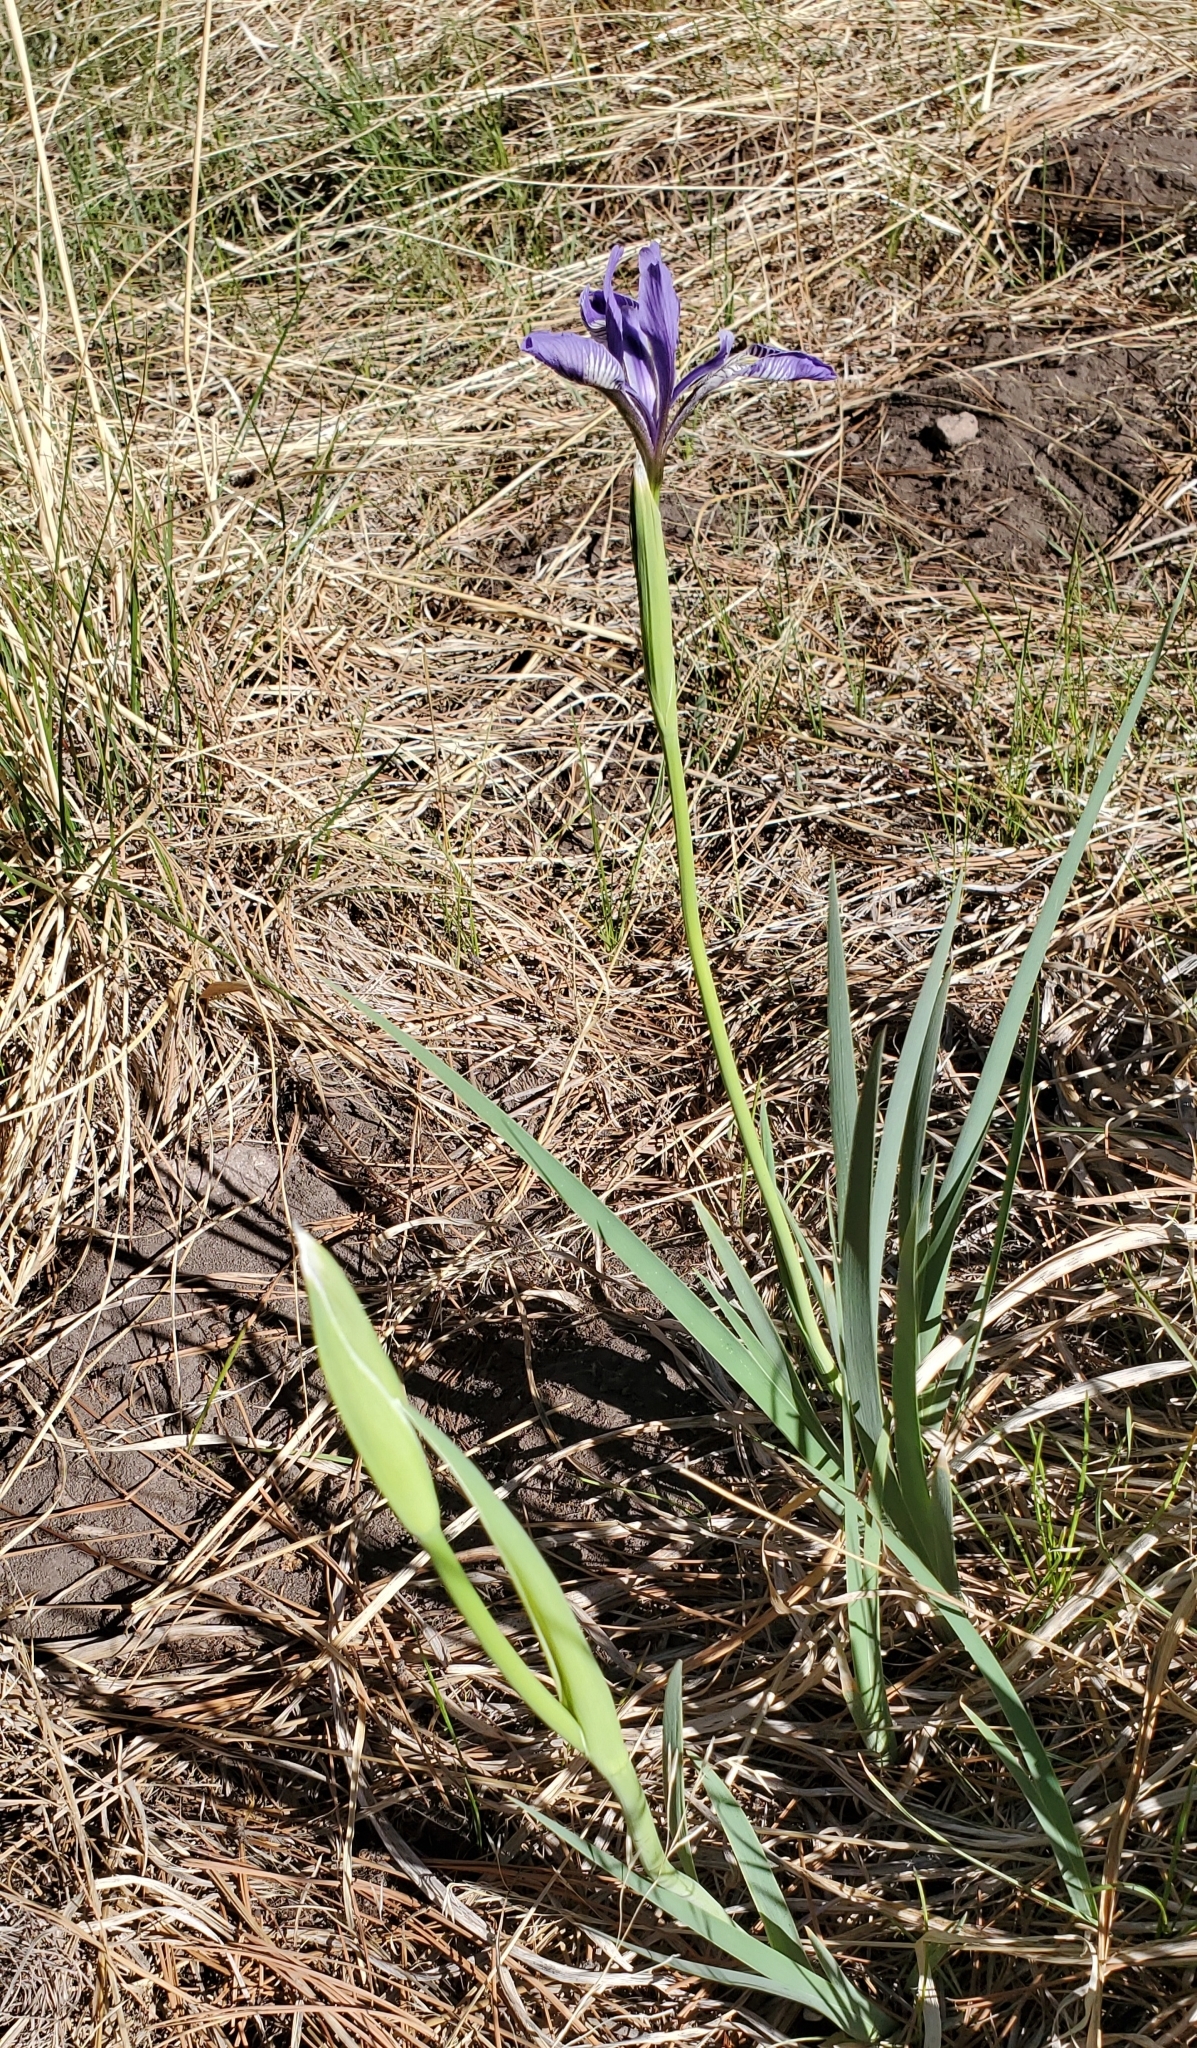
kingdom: Plantae
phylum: Tracheophyta
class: Liliopsida
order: Asparagales
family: Iridaceae
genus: Iris
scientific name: Iris missouriensis
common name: Rocky mountain iris
